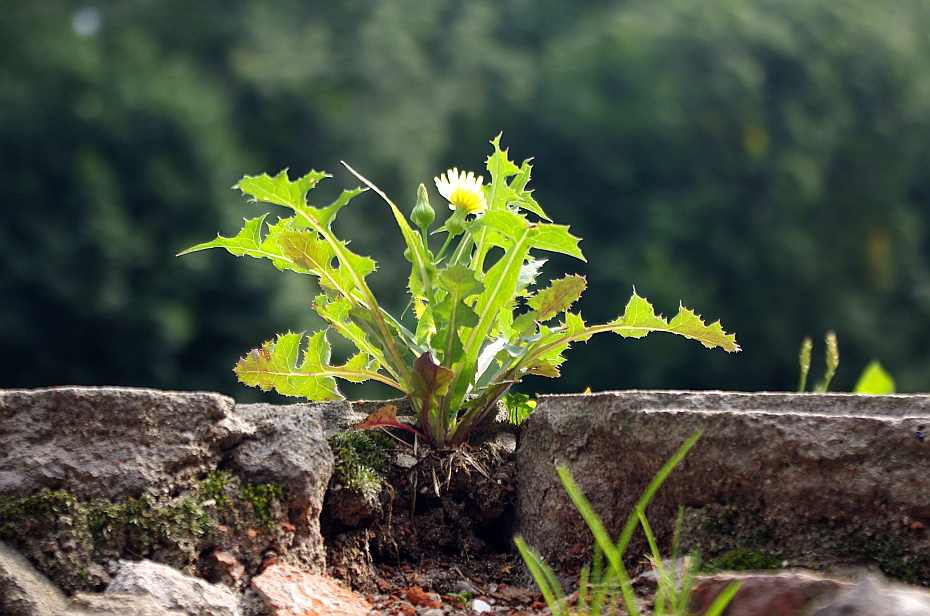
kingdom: Plantae
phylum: Tracheophyta
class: Magnoliopsida
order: Asterales
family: Asteraceae
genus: Sonchus
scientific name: Sonchus oleraceus
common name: Common sowthistle
